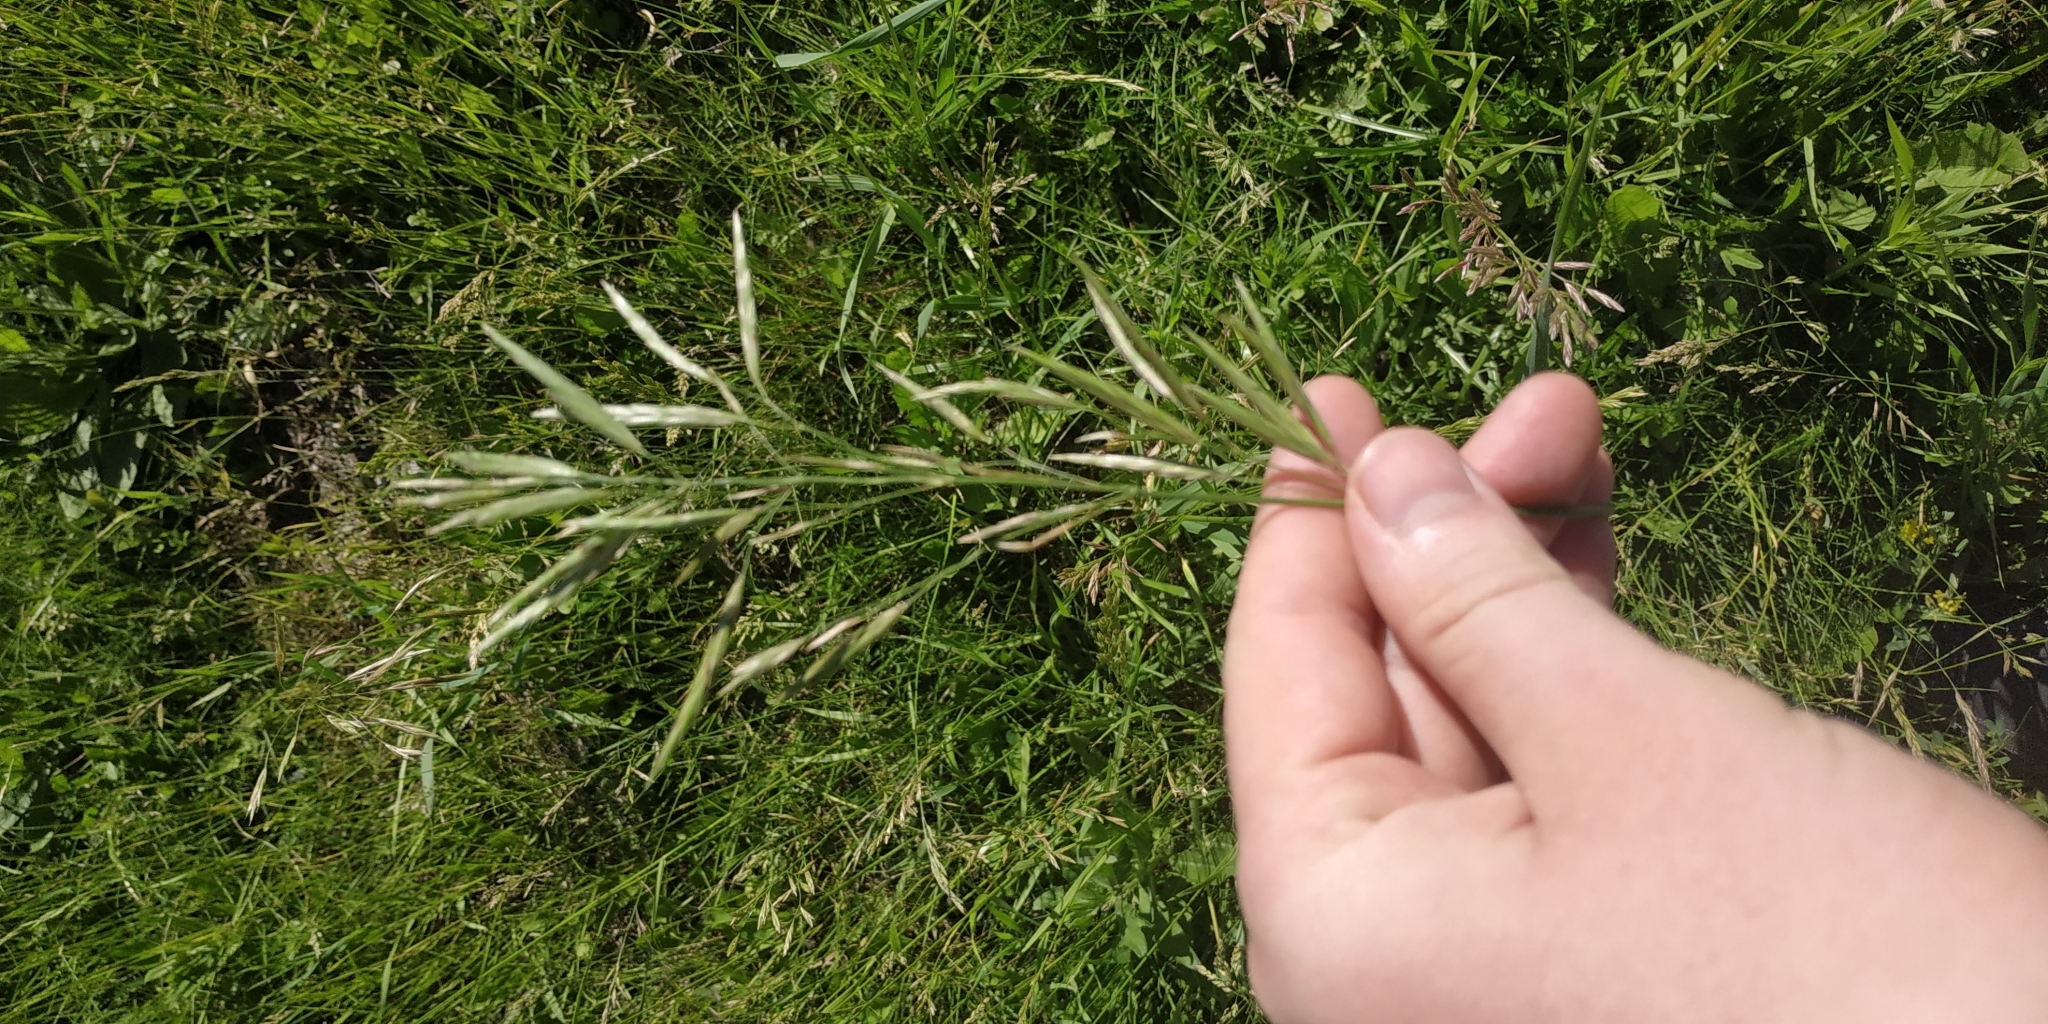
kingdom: Plantae
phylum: Tracheophyta
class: Liliopsida
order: Poales
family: Poaceae
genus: Bromus
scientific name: Bromus inermis
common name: Smooth brome
